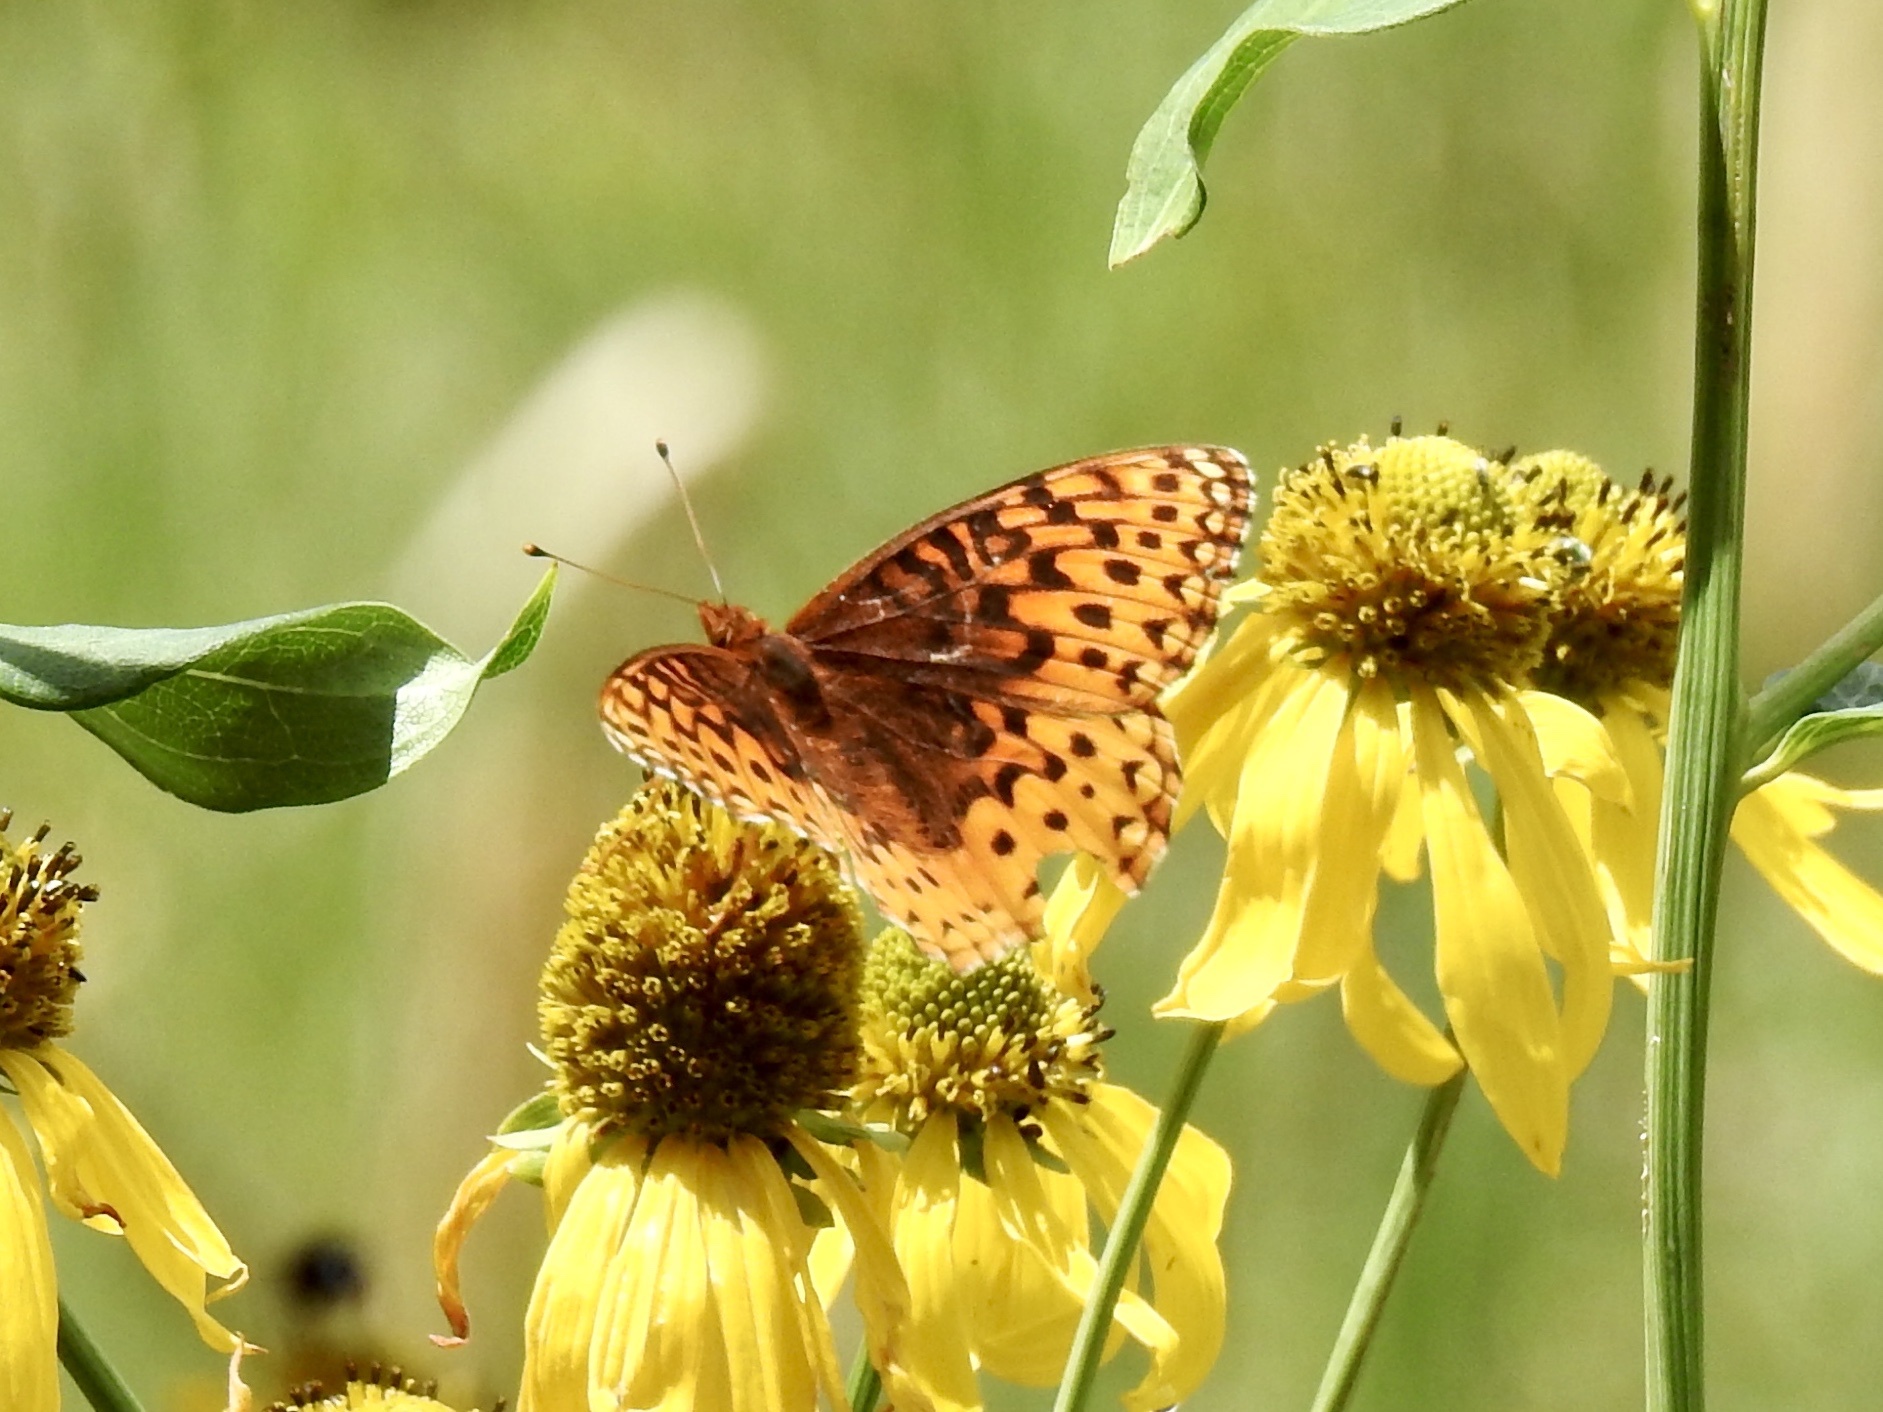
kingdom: Animalia
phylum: Arthropoda
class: Insecta
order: Lepidoptera
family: Nymphalidae
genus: Speyeria
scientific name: Speyeria atlantis
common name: Atlantis fritillary
